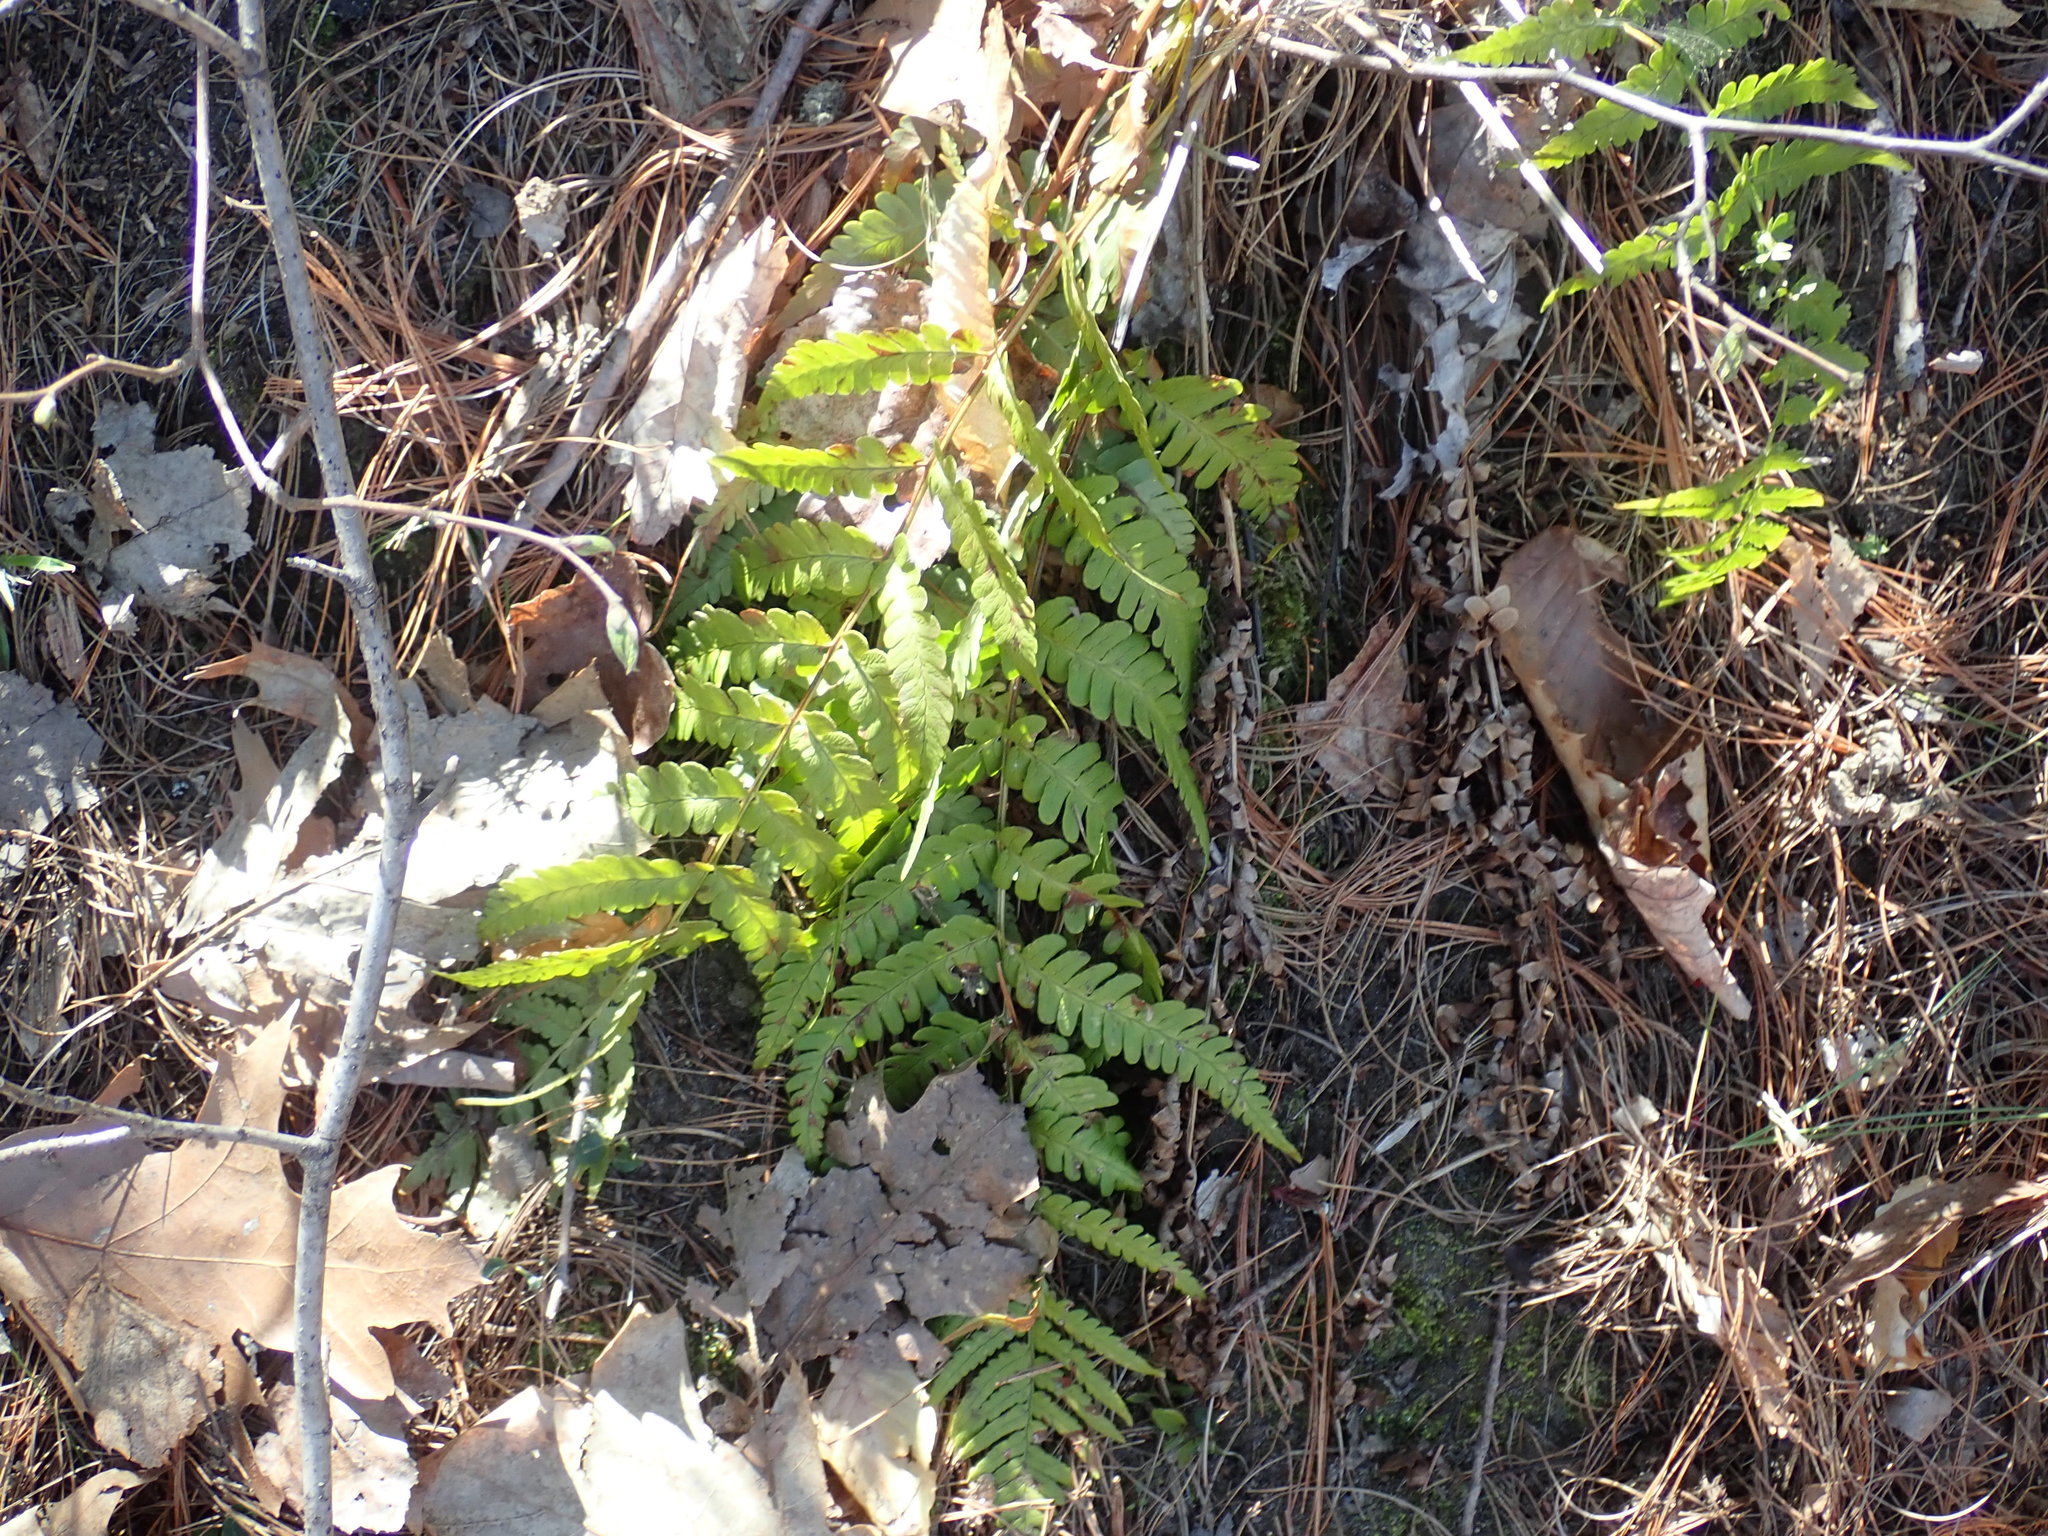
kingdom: Plantae
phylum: Tracheophyta
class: Polypodiopsida
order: Polypodiales
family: Dryopteridaceae
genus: Dryopteris
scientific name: Dryopteris marginalis
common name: Marginal wood fern
